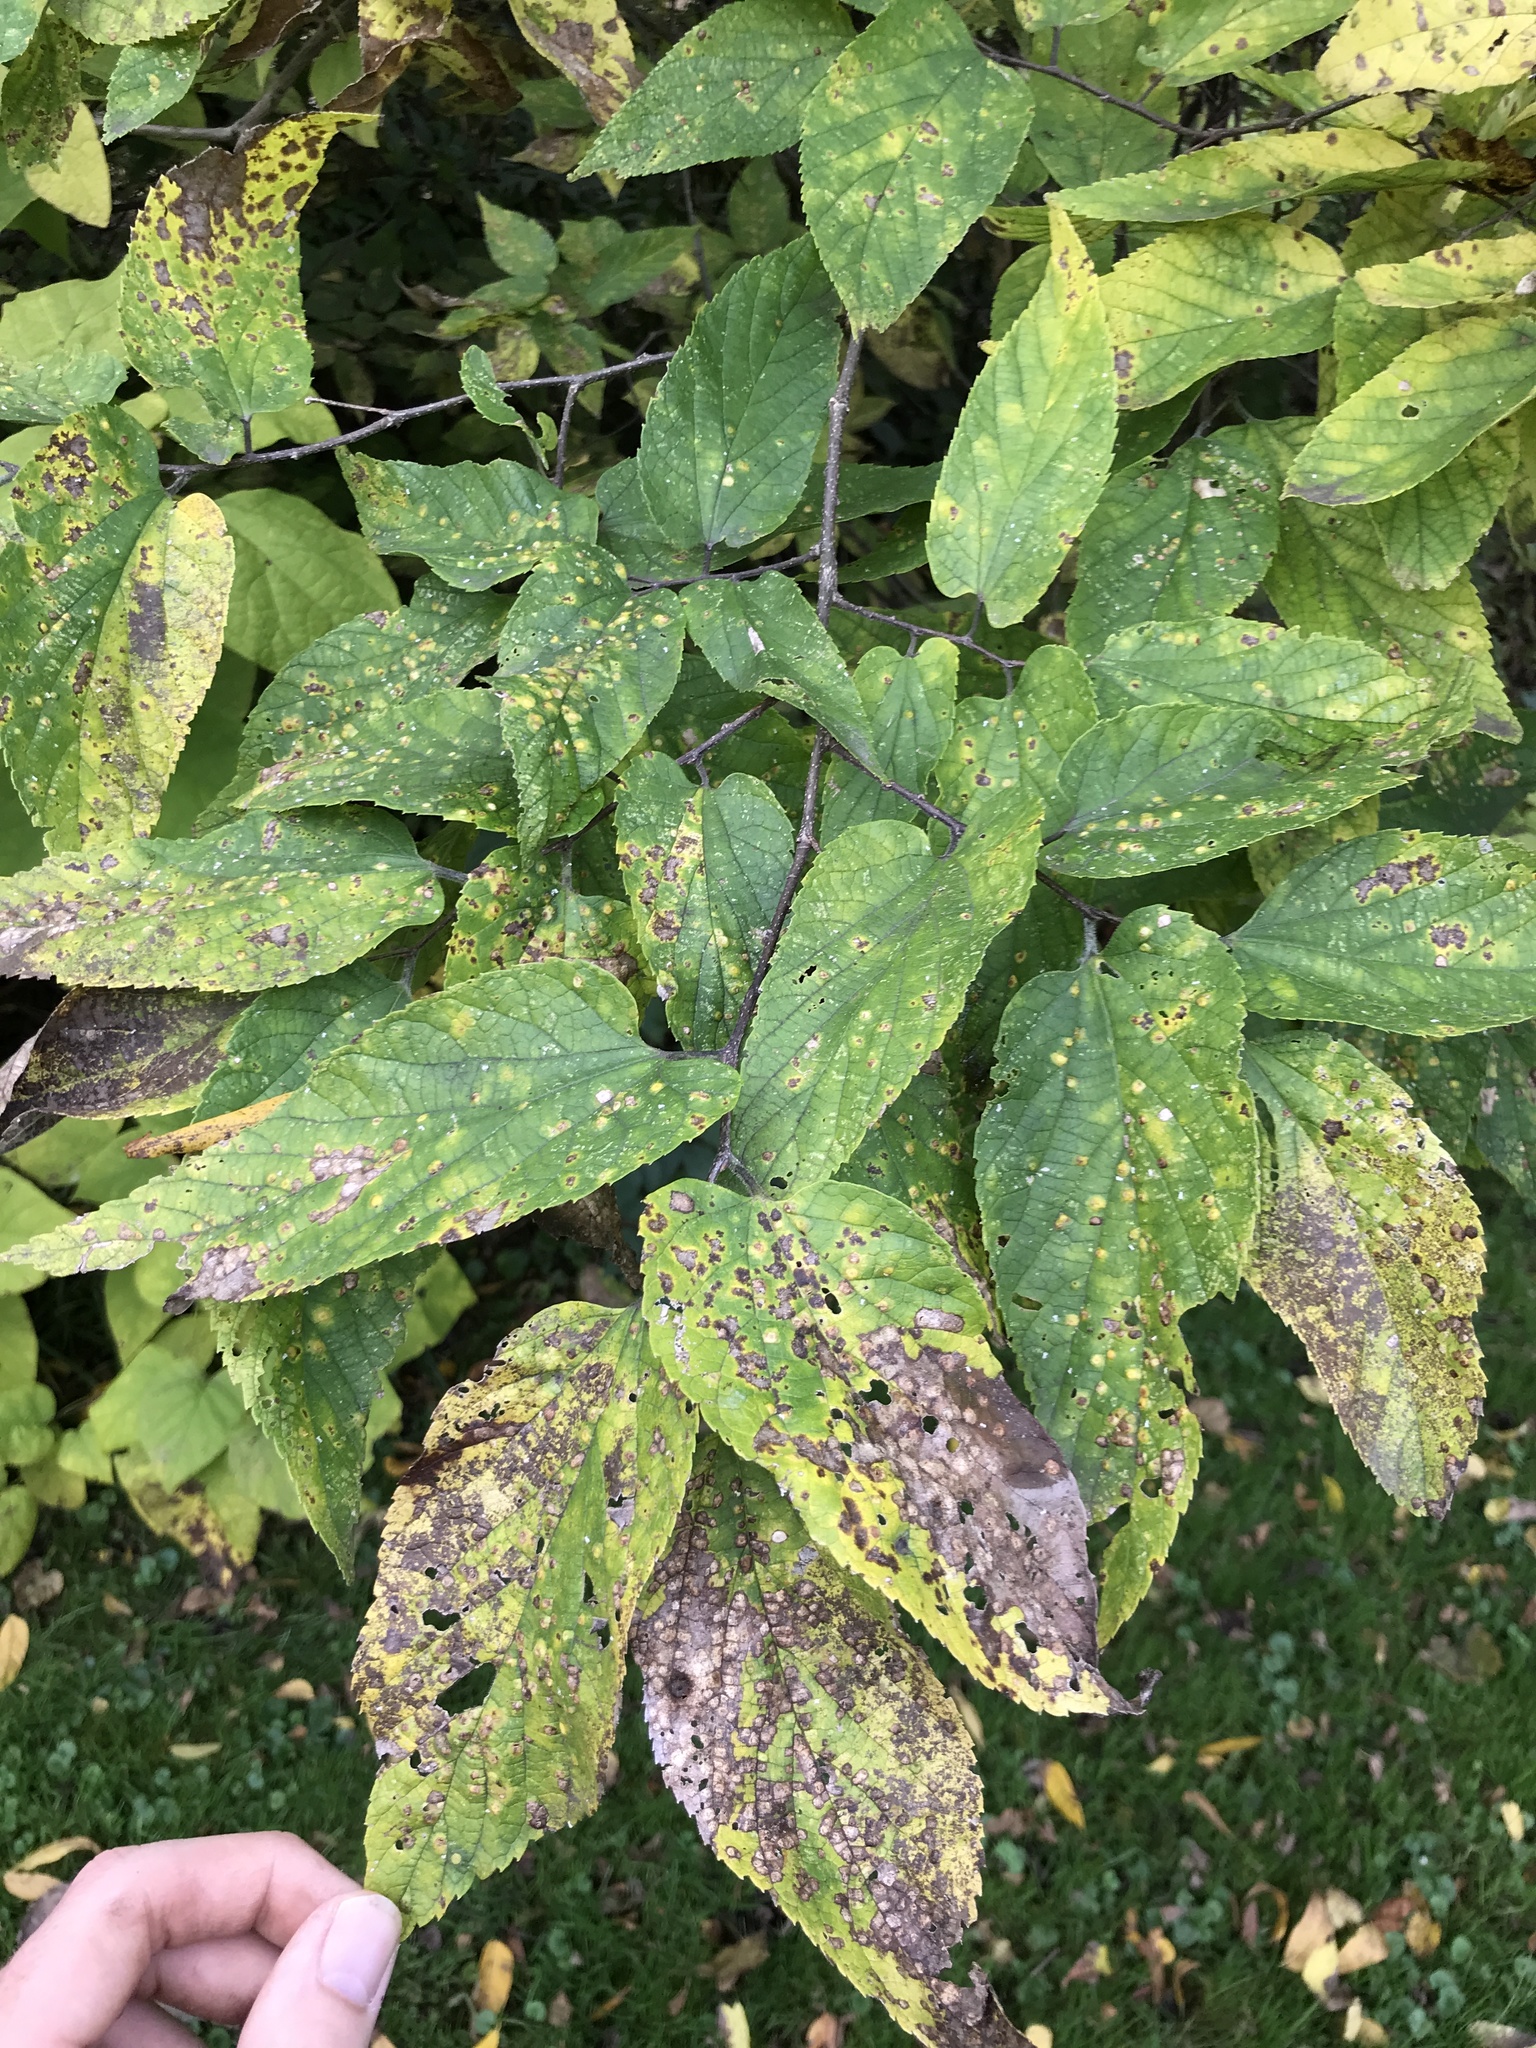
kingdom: Plantae
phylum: Tracheophyta
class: Magnoliopsida
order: Rosales
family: Cannabaceae
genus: Celtis
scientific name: Celtis occidentalis
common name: Common hackberry
